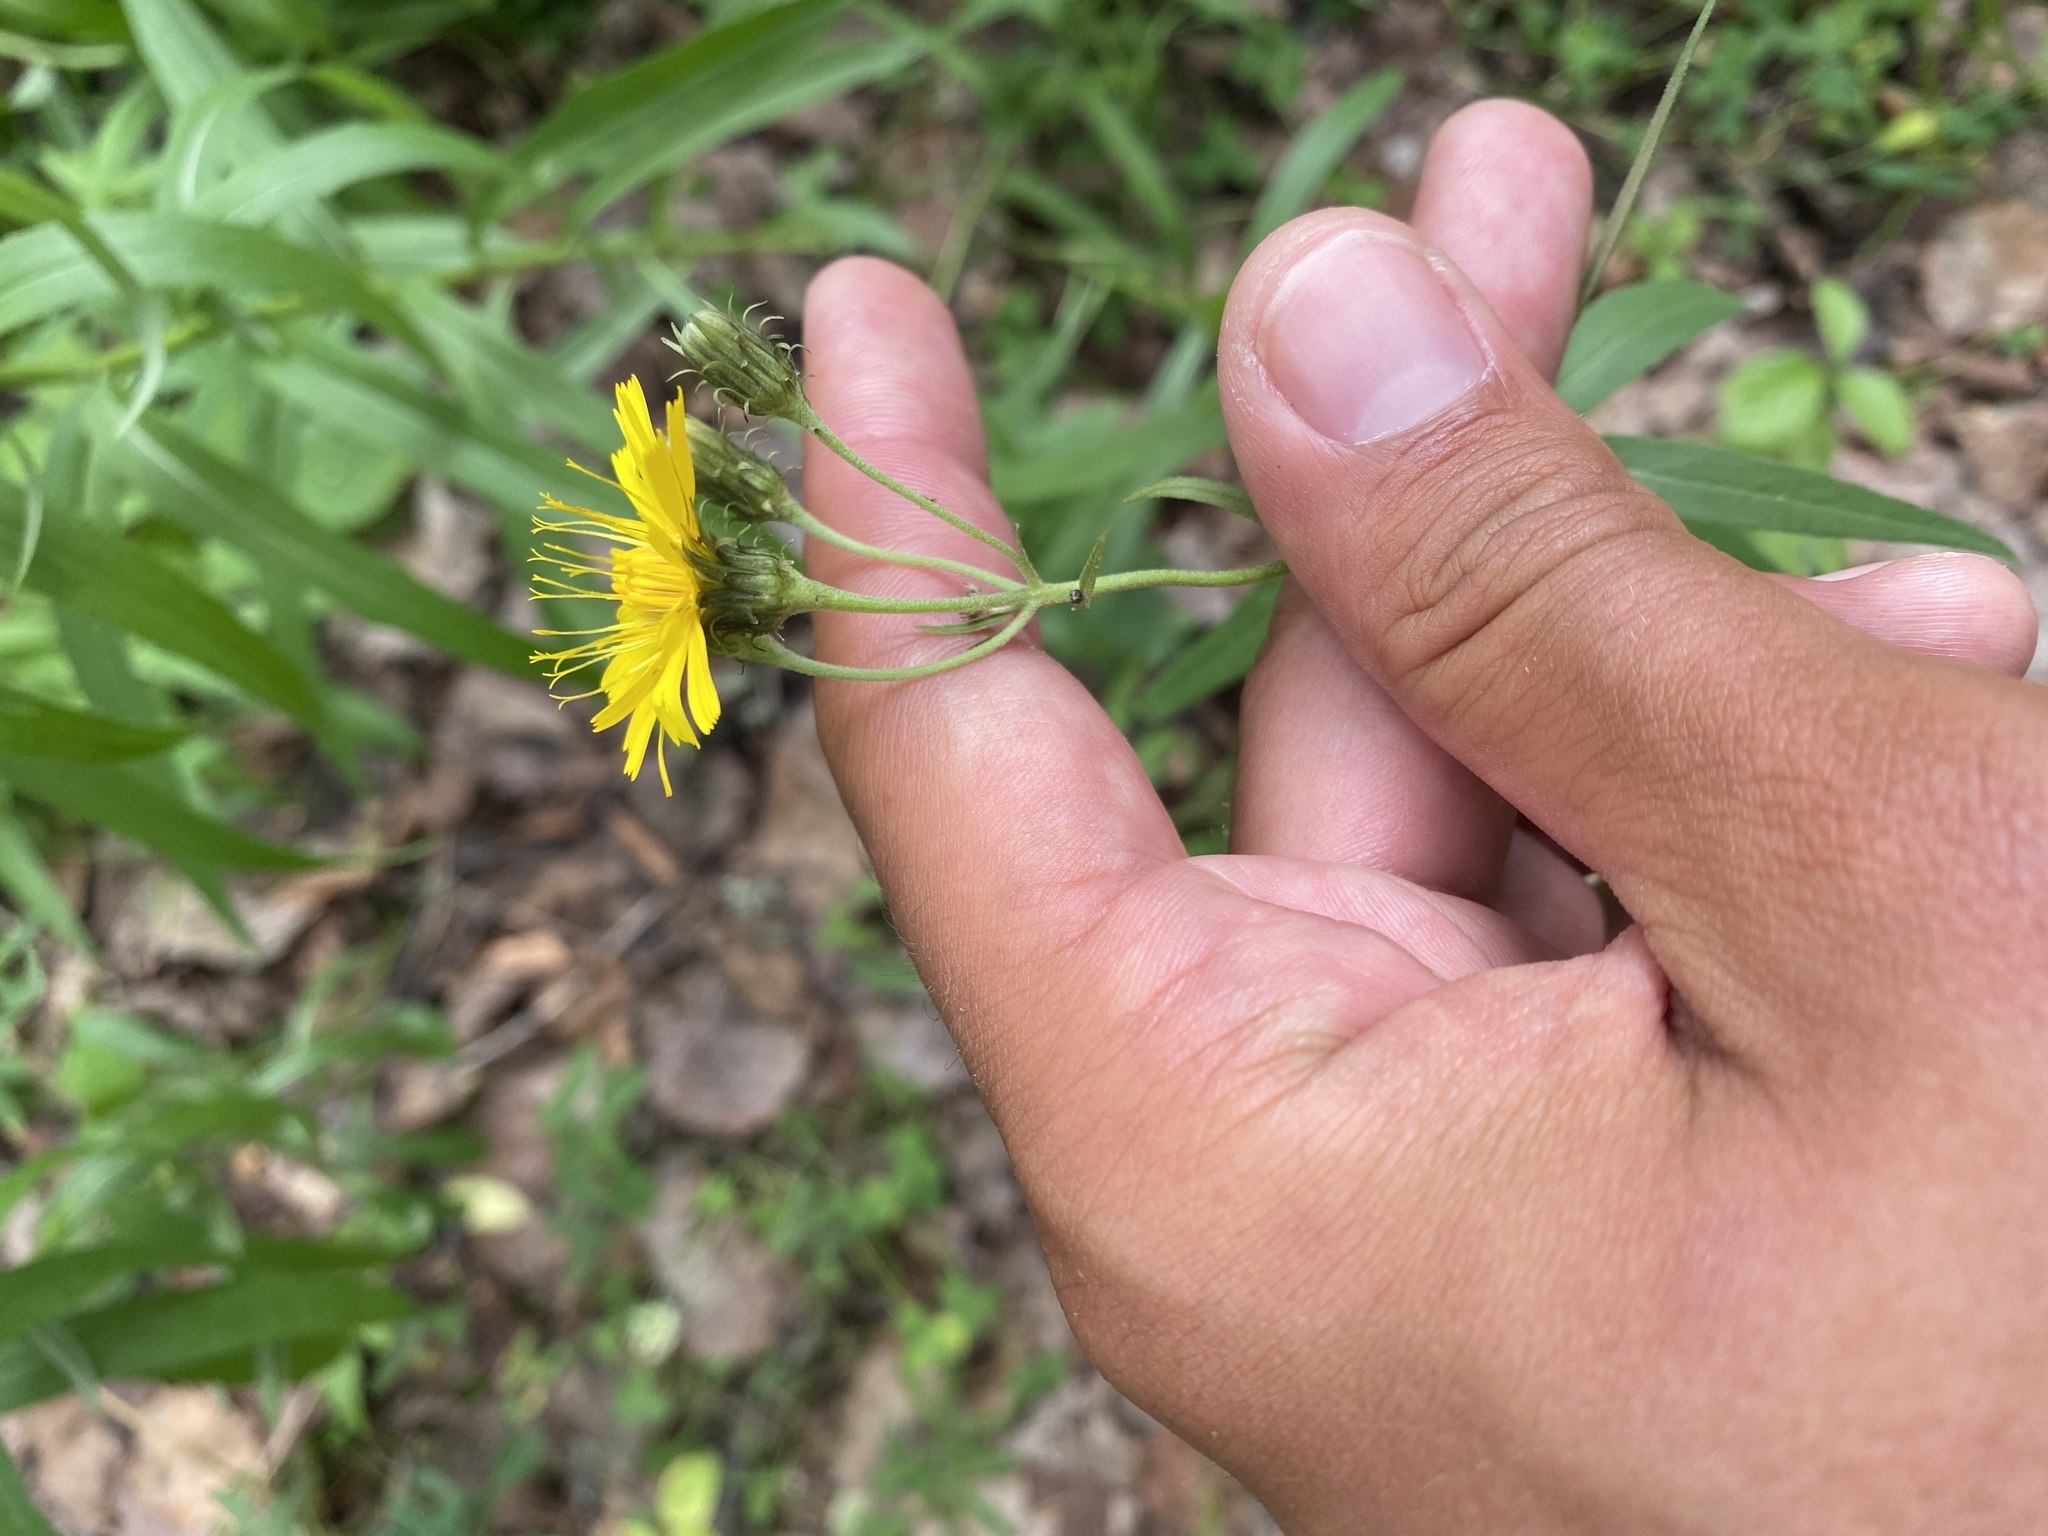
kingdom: Plantae
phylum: Tracheophyta
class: Magnoliopsida
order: Asterales
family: Asteraceae
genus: Hieracium
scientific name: Hieracium umbellatum
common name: Northern hawkweed
